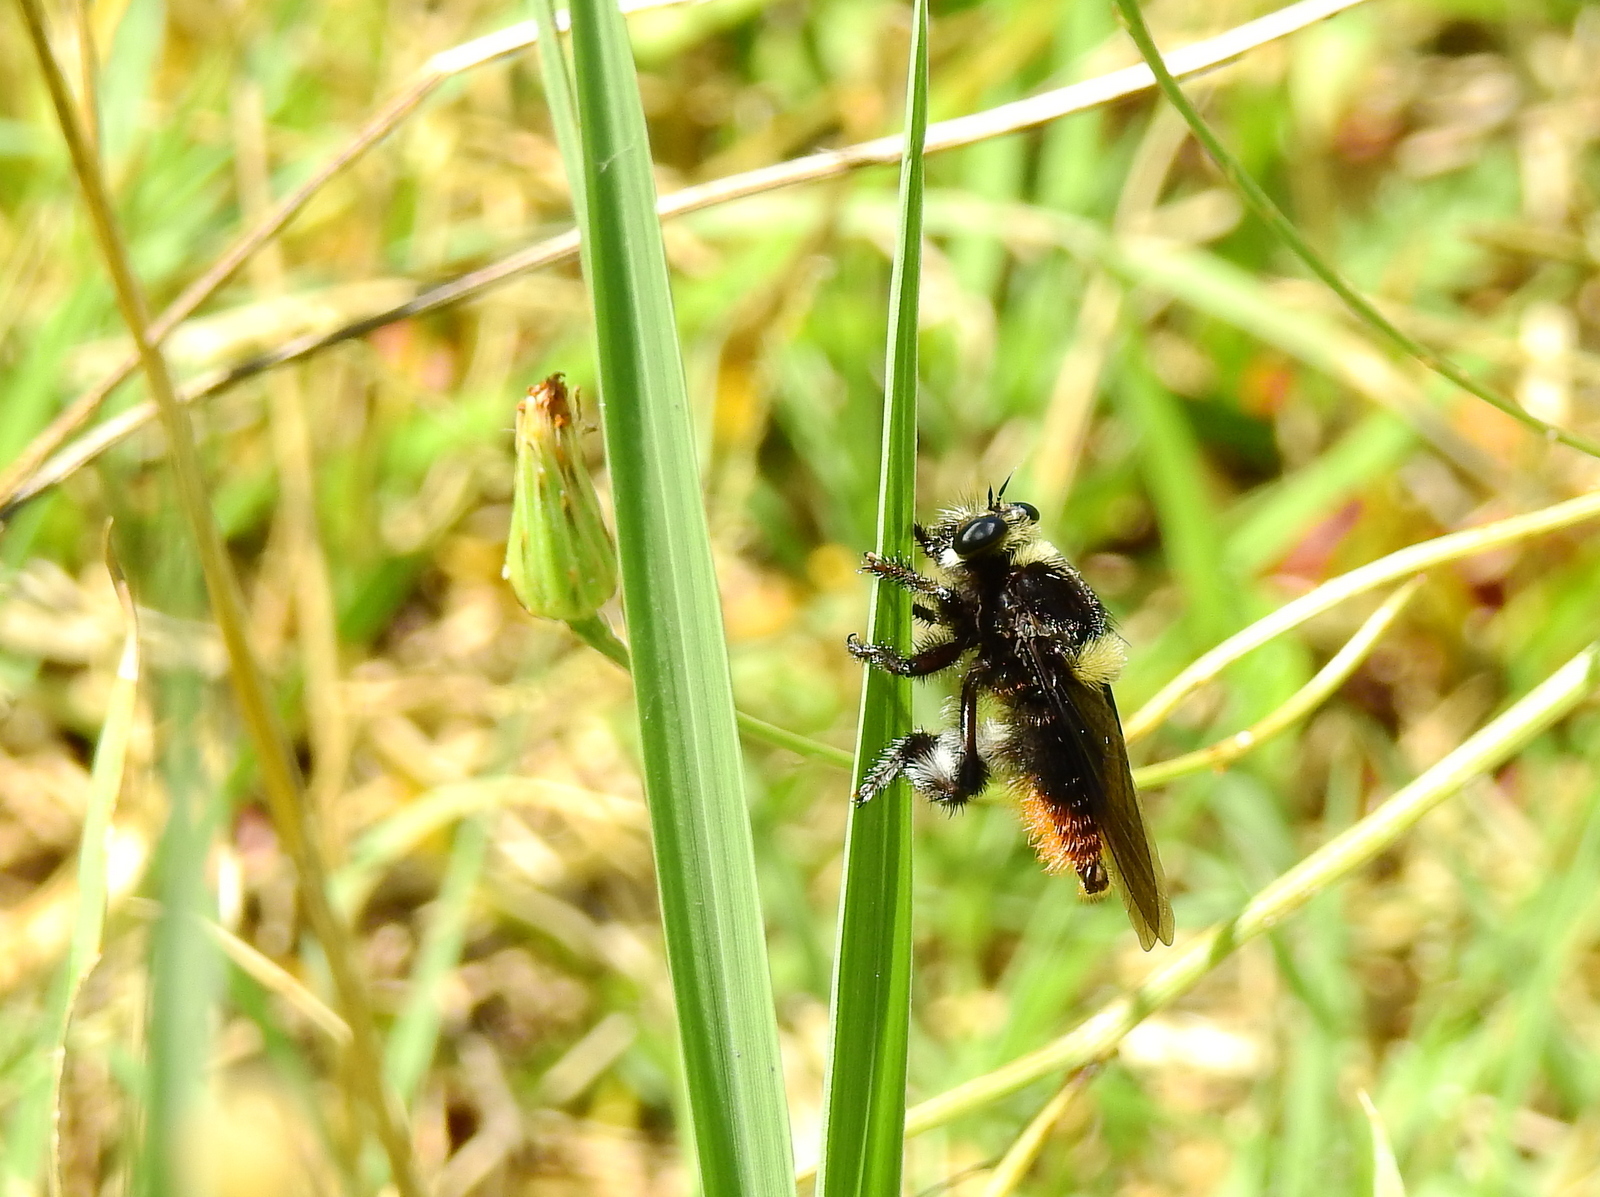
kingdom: Animalia
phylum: Arthropoda
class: Insecta
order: Diptera
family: Asilidae
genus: Mallophora
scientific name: Mallophora ruficauda
